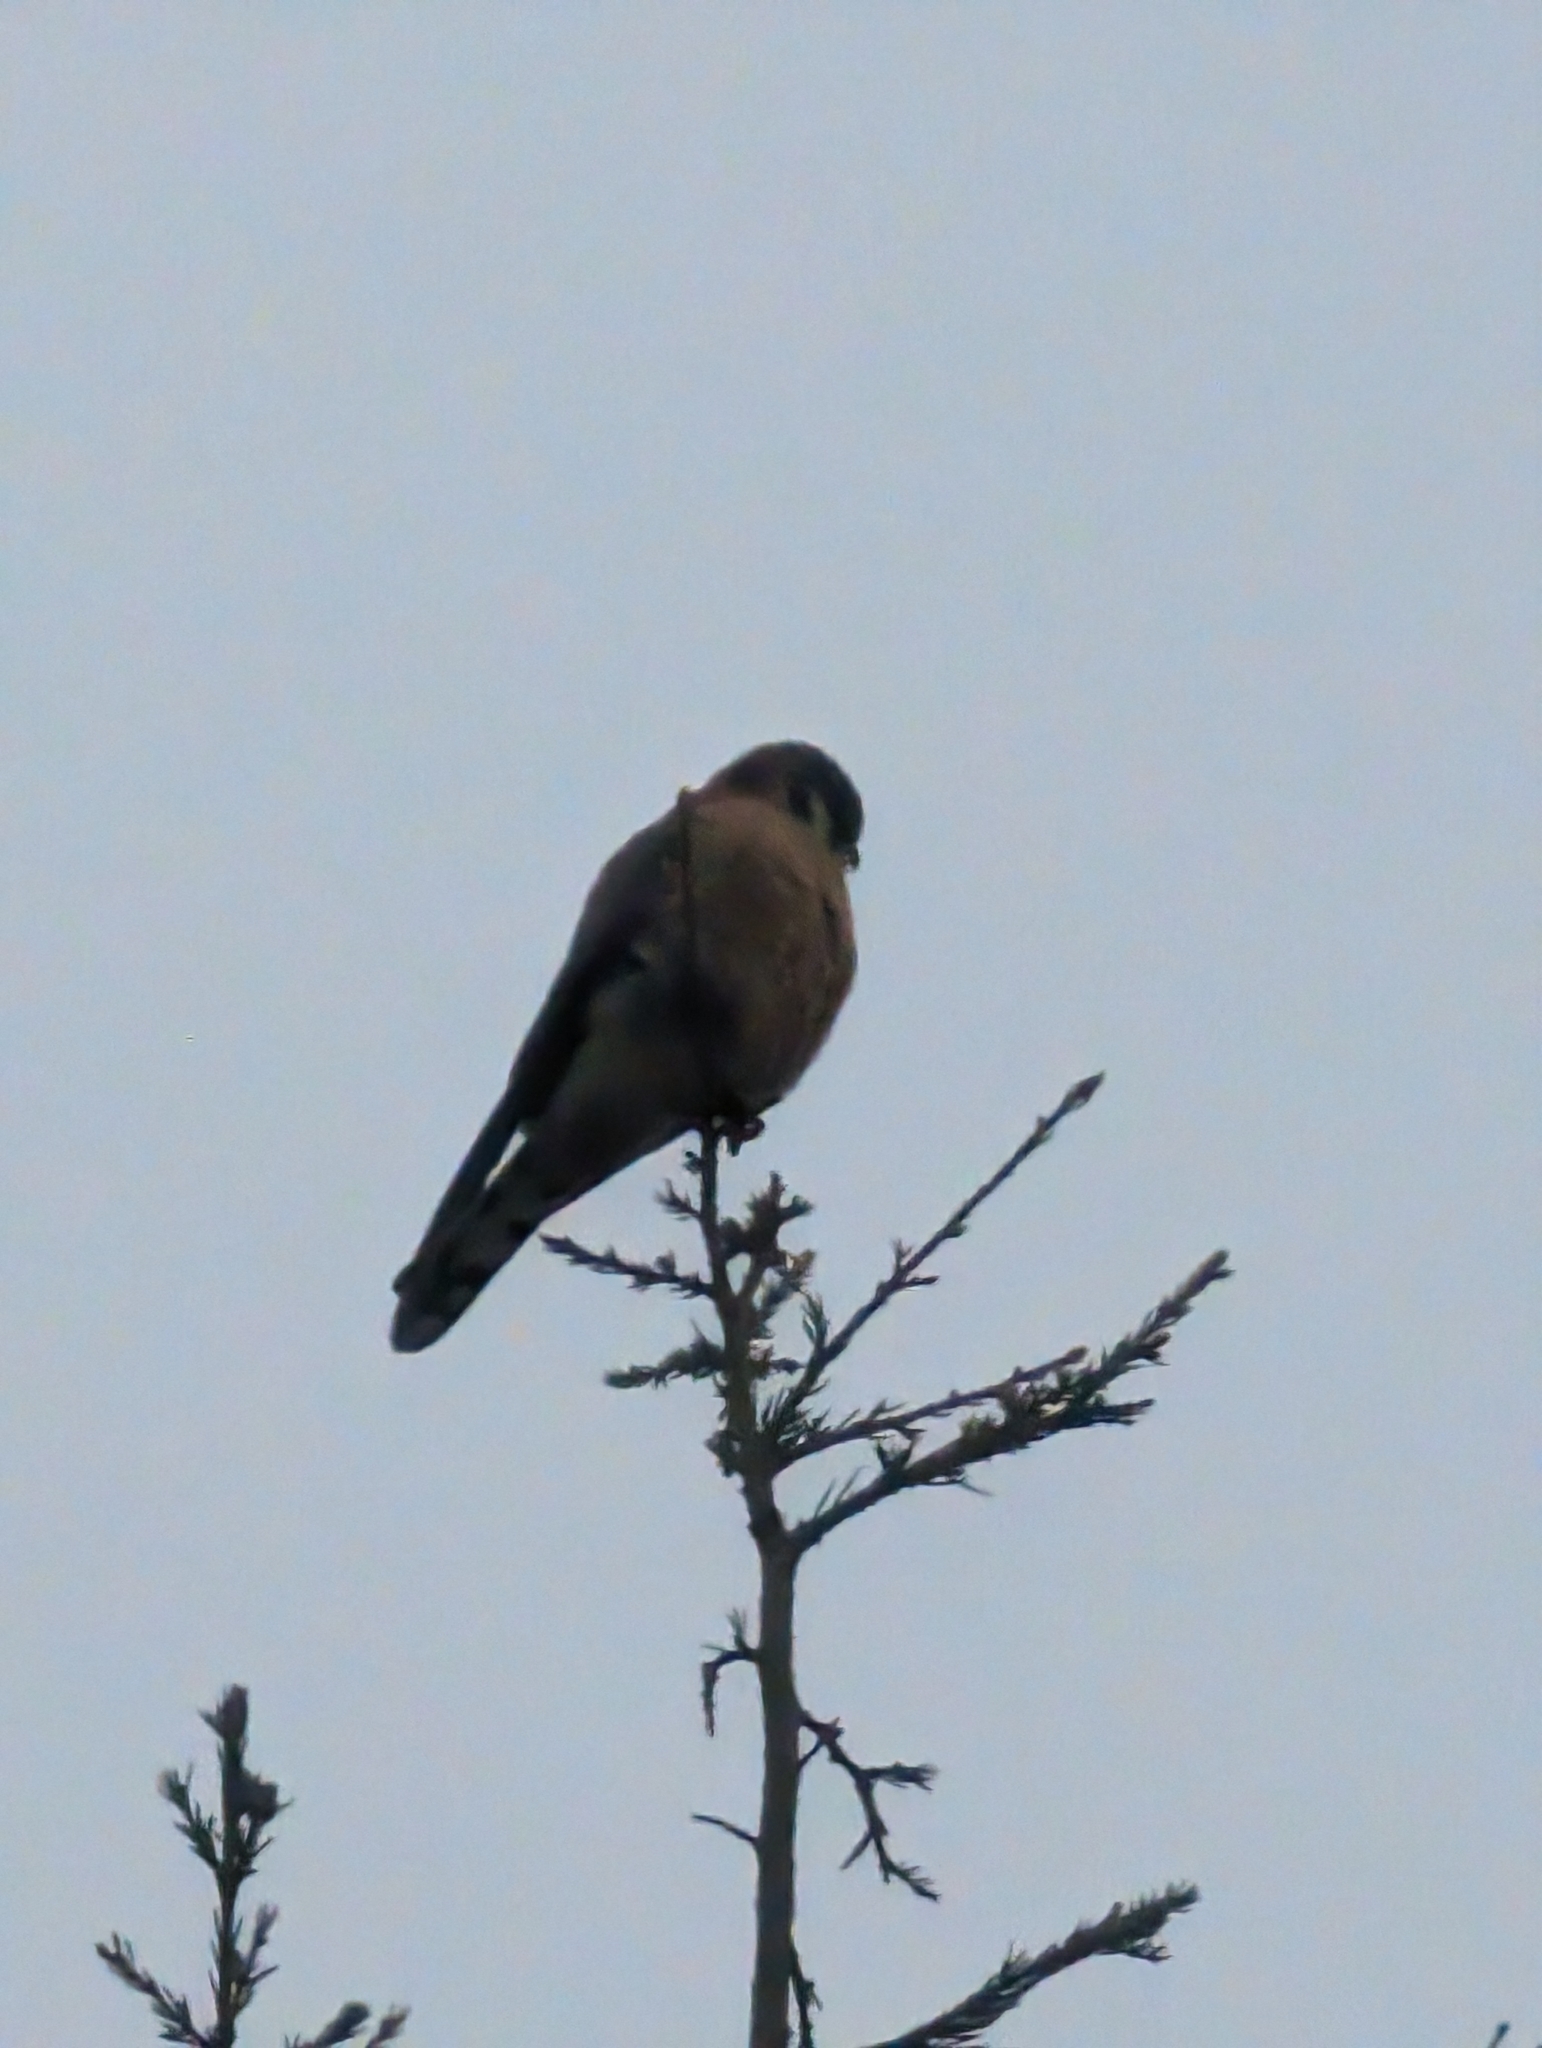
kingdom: Animalia
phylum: Chordata
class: Aves
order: Falconiformes
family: Falconidae
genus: Falco
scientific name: Falco sparverius
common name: American kestrel
